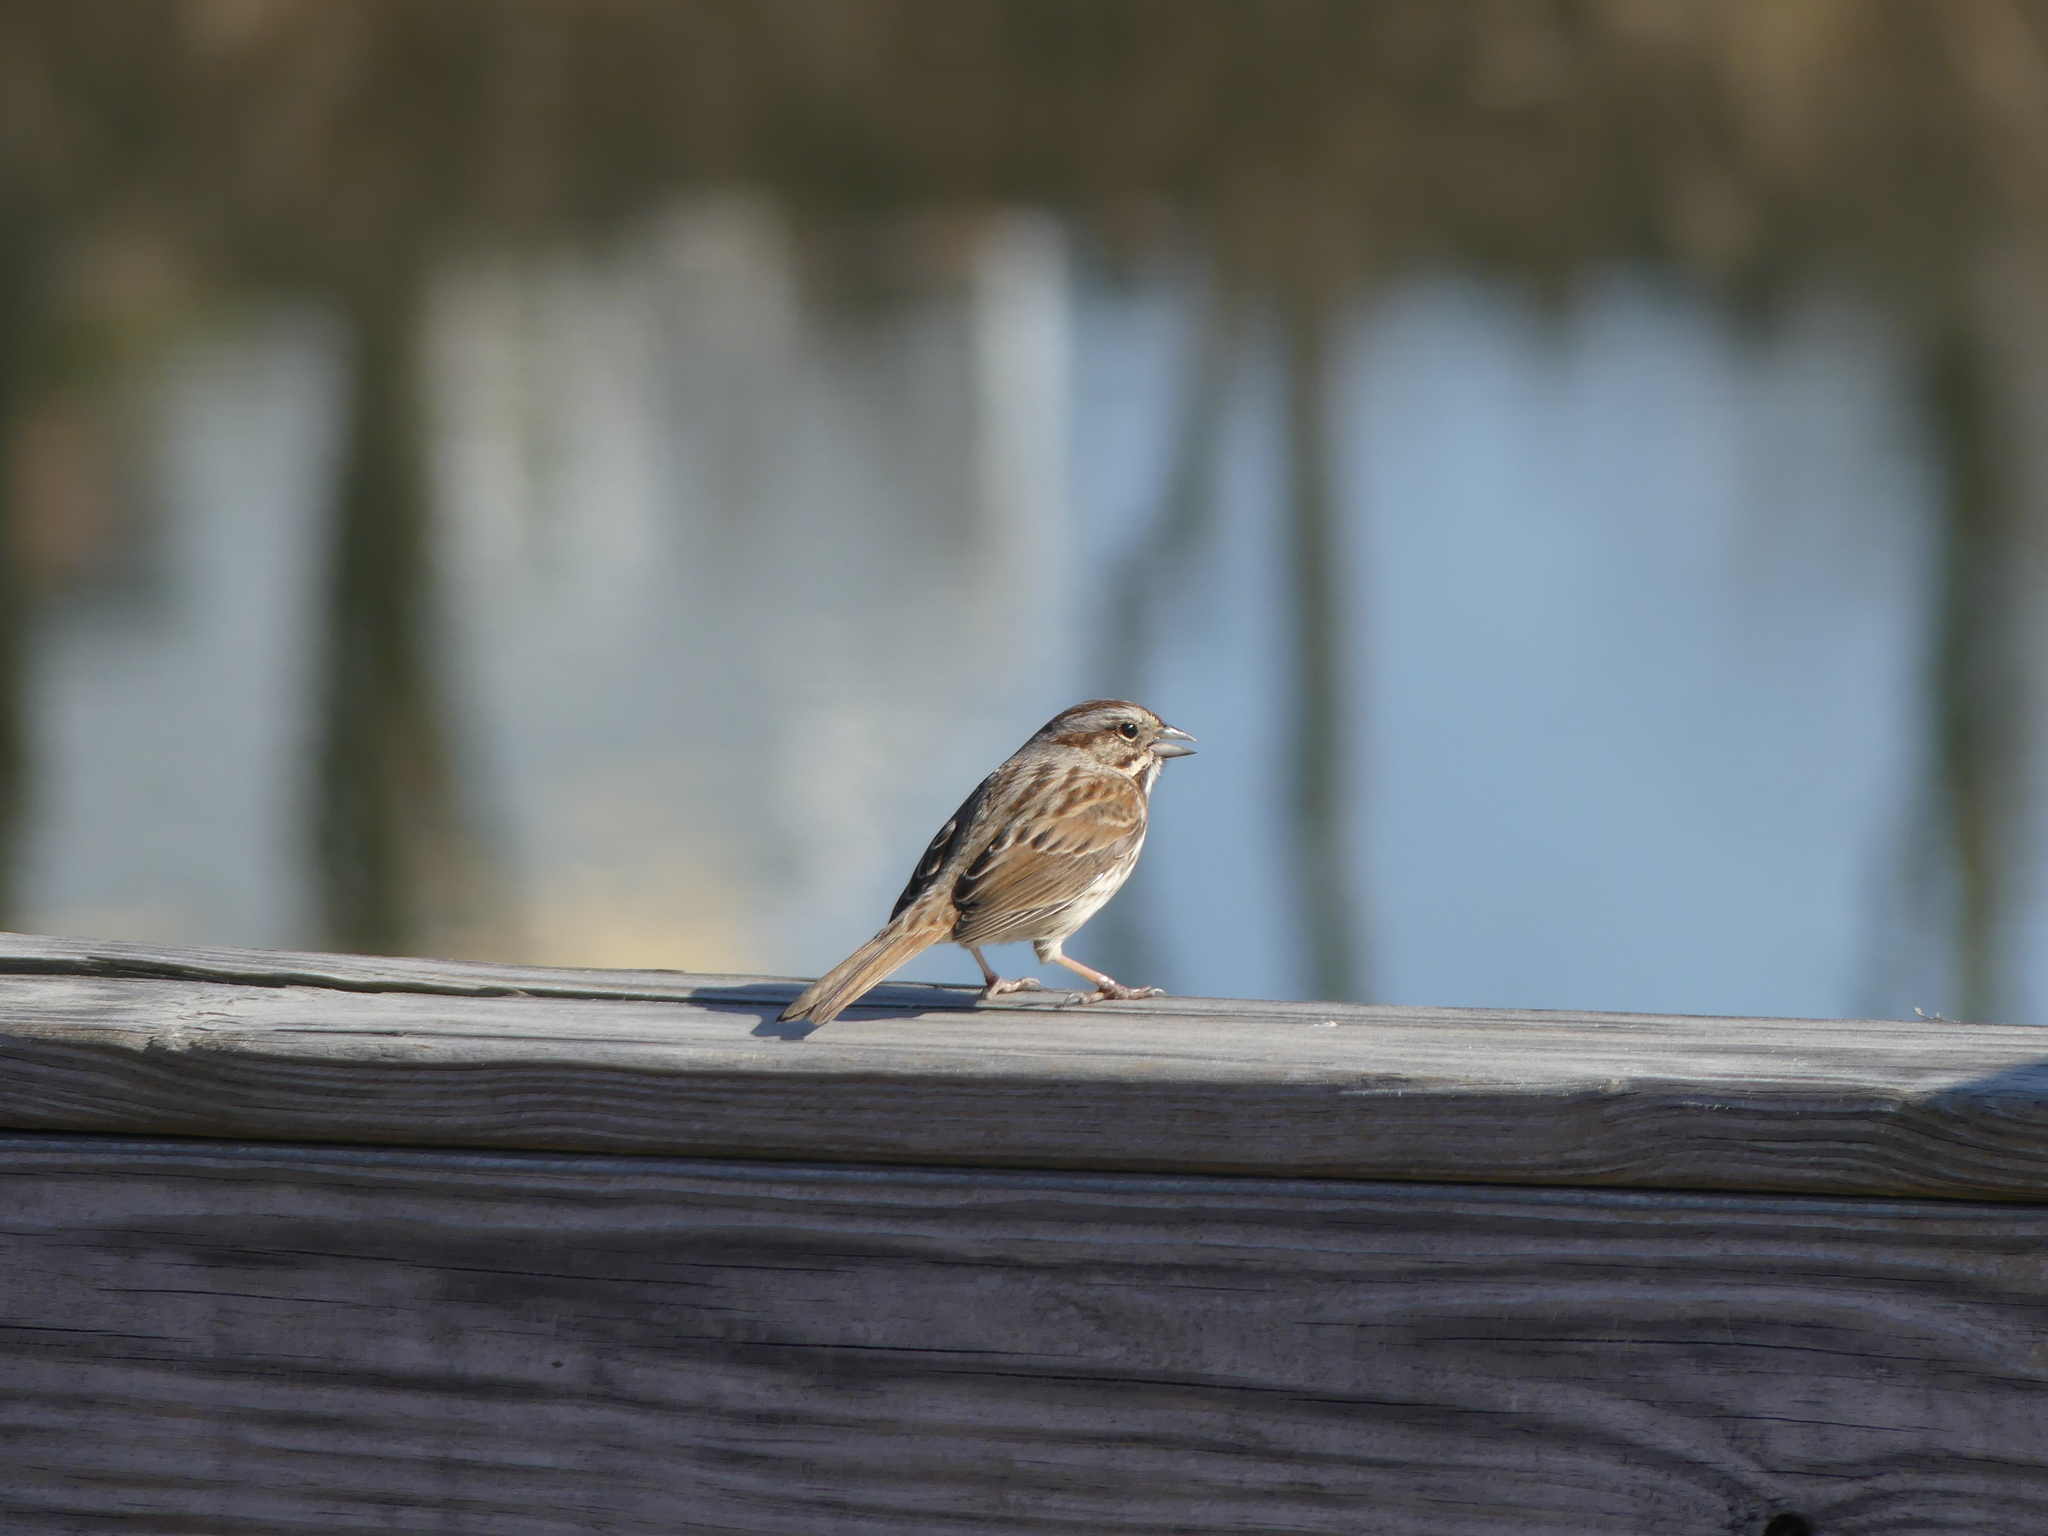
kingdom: Animalia
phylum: Chordata
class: Aves
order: Passeriformes
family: Passerellidae
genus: Melospiza
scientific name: Melospiza melodia
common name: Song sparrow
